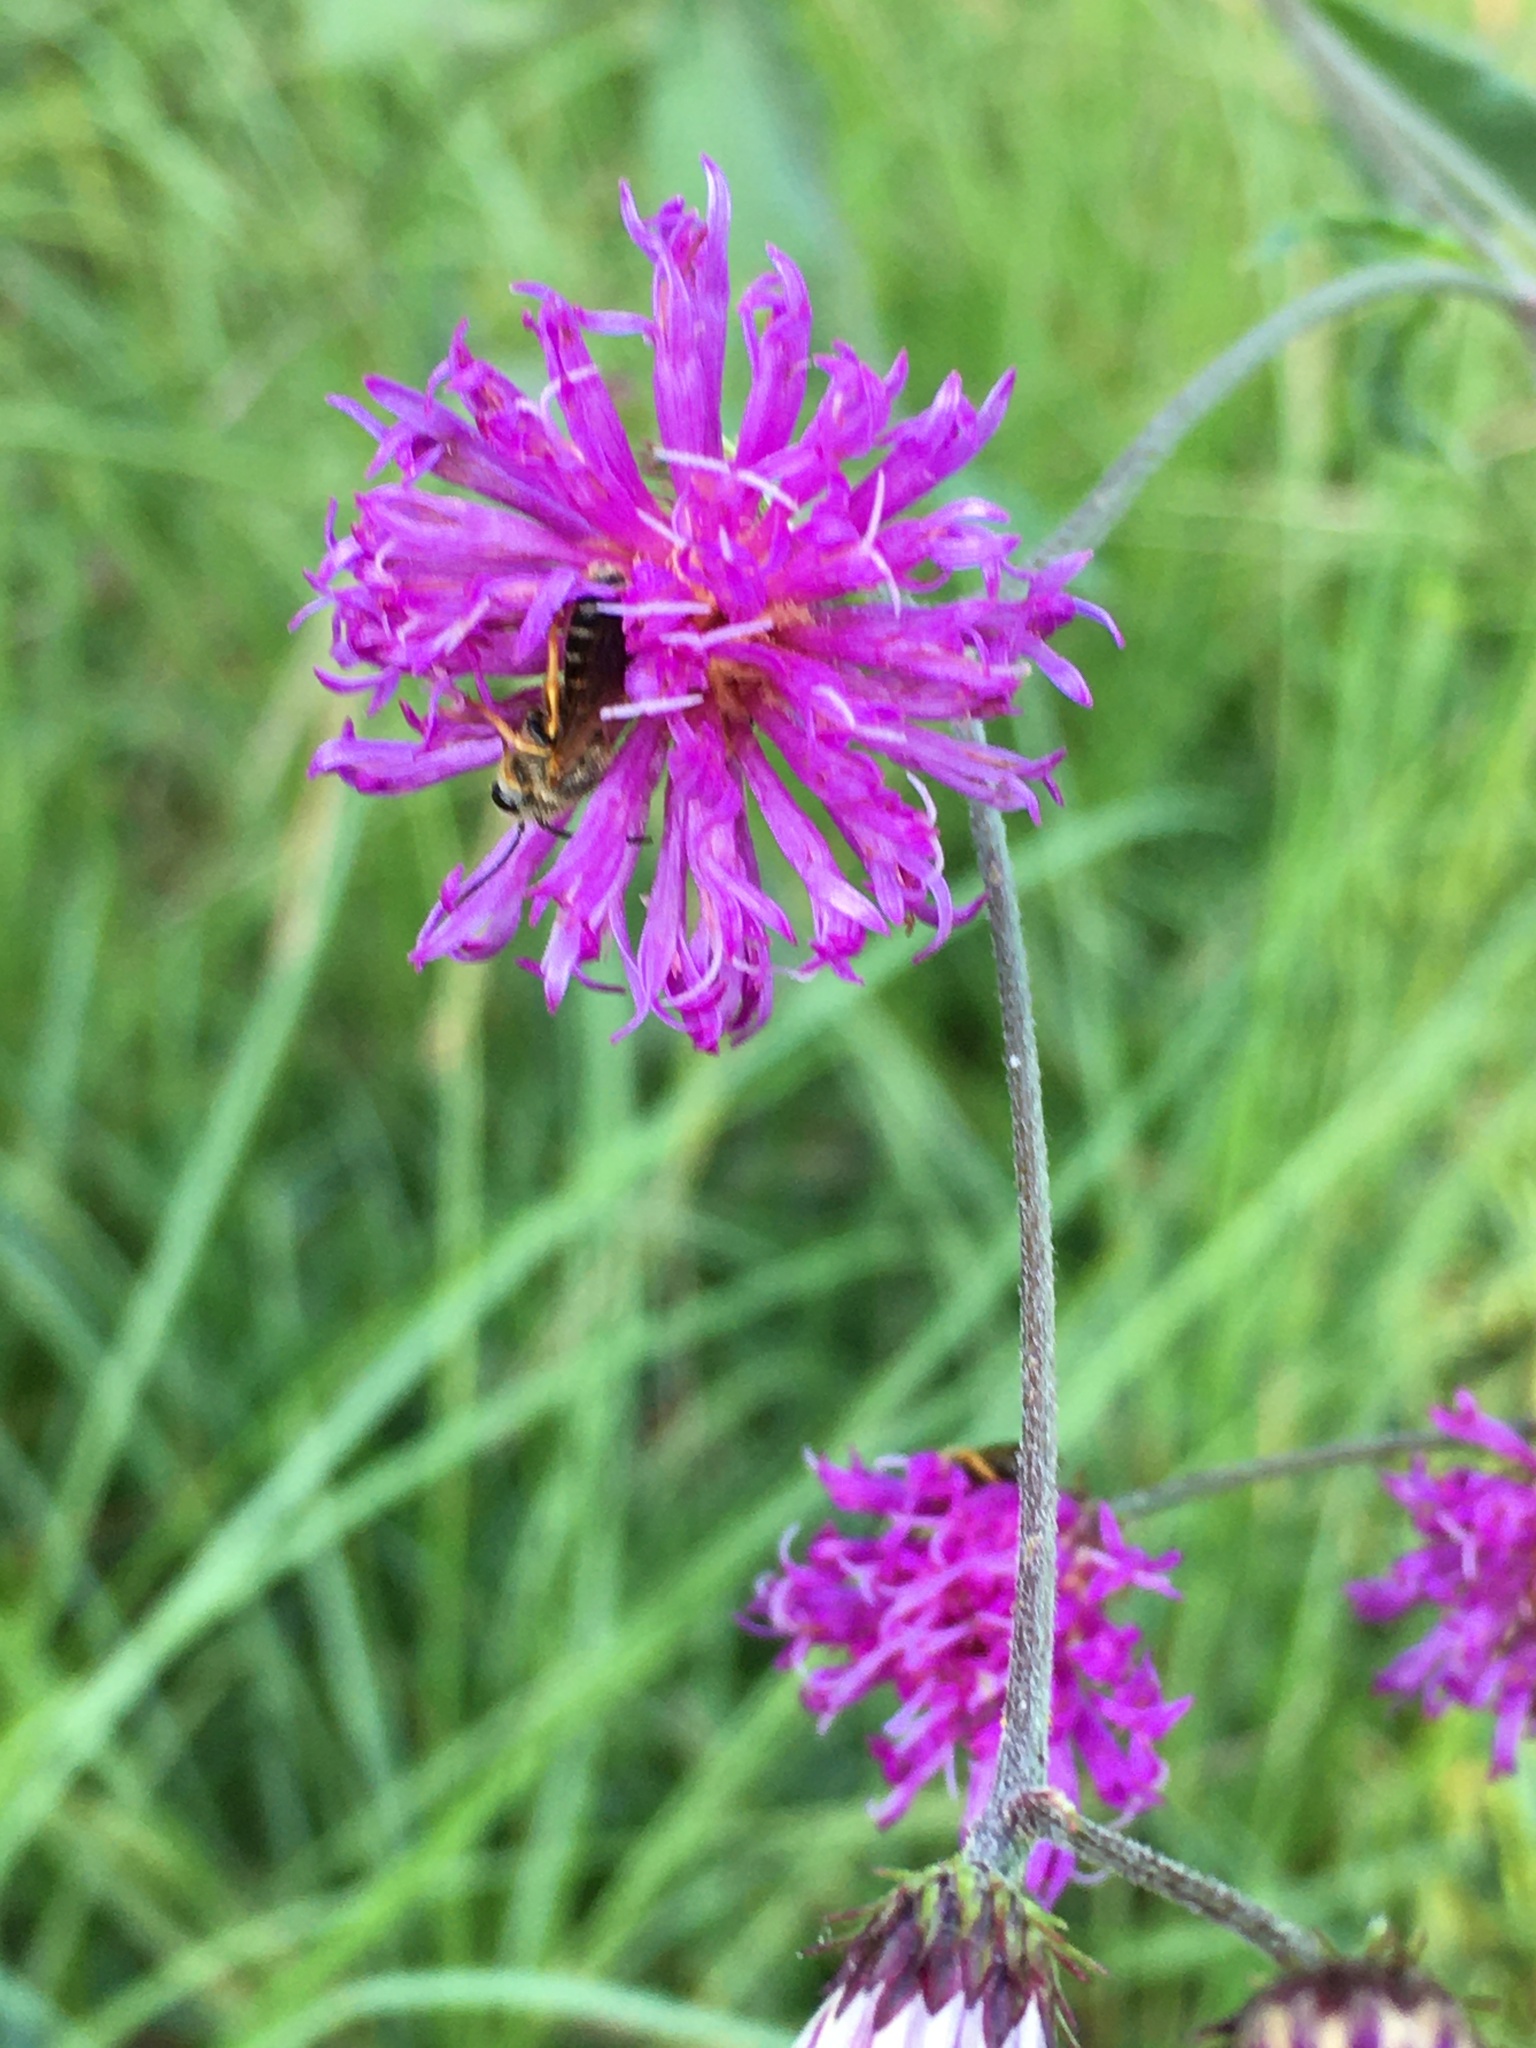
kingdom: Plantae
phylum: Tracheophyta
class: Magnoliopsida
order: Asterales
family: Asteraceae
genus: Vernonia
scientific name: Vernonia acaulis
